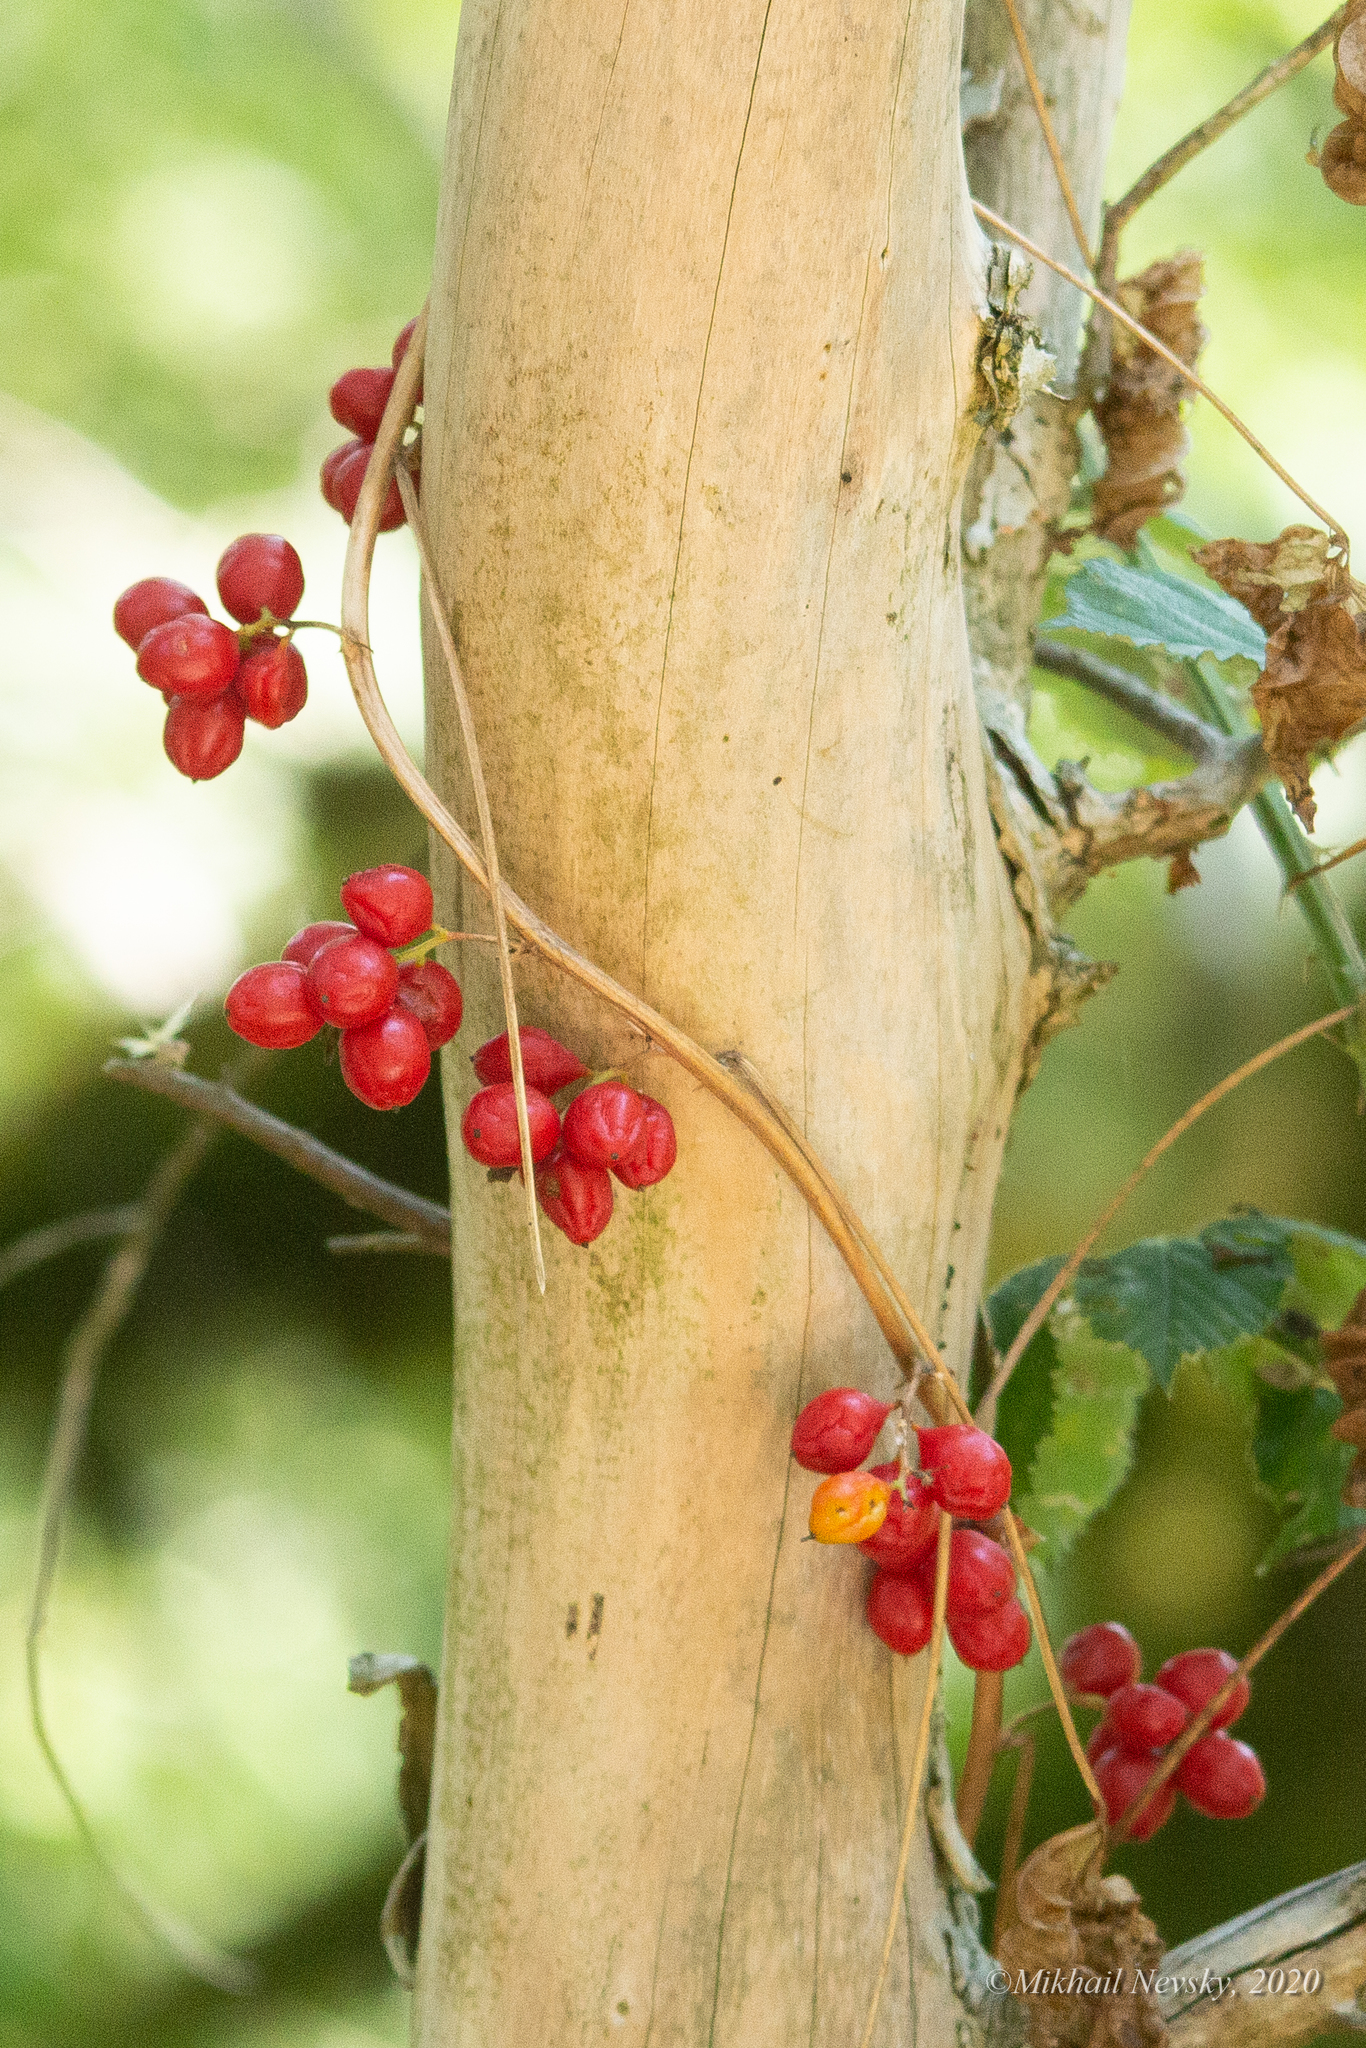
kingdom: Plantae
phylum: Tracheophyta
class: Liliopsida
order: Dioscoreales
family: Dioscoreaceae
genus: Dioscorea
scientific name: Dioscorea communis
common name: Black-bindweed
